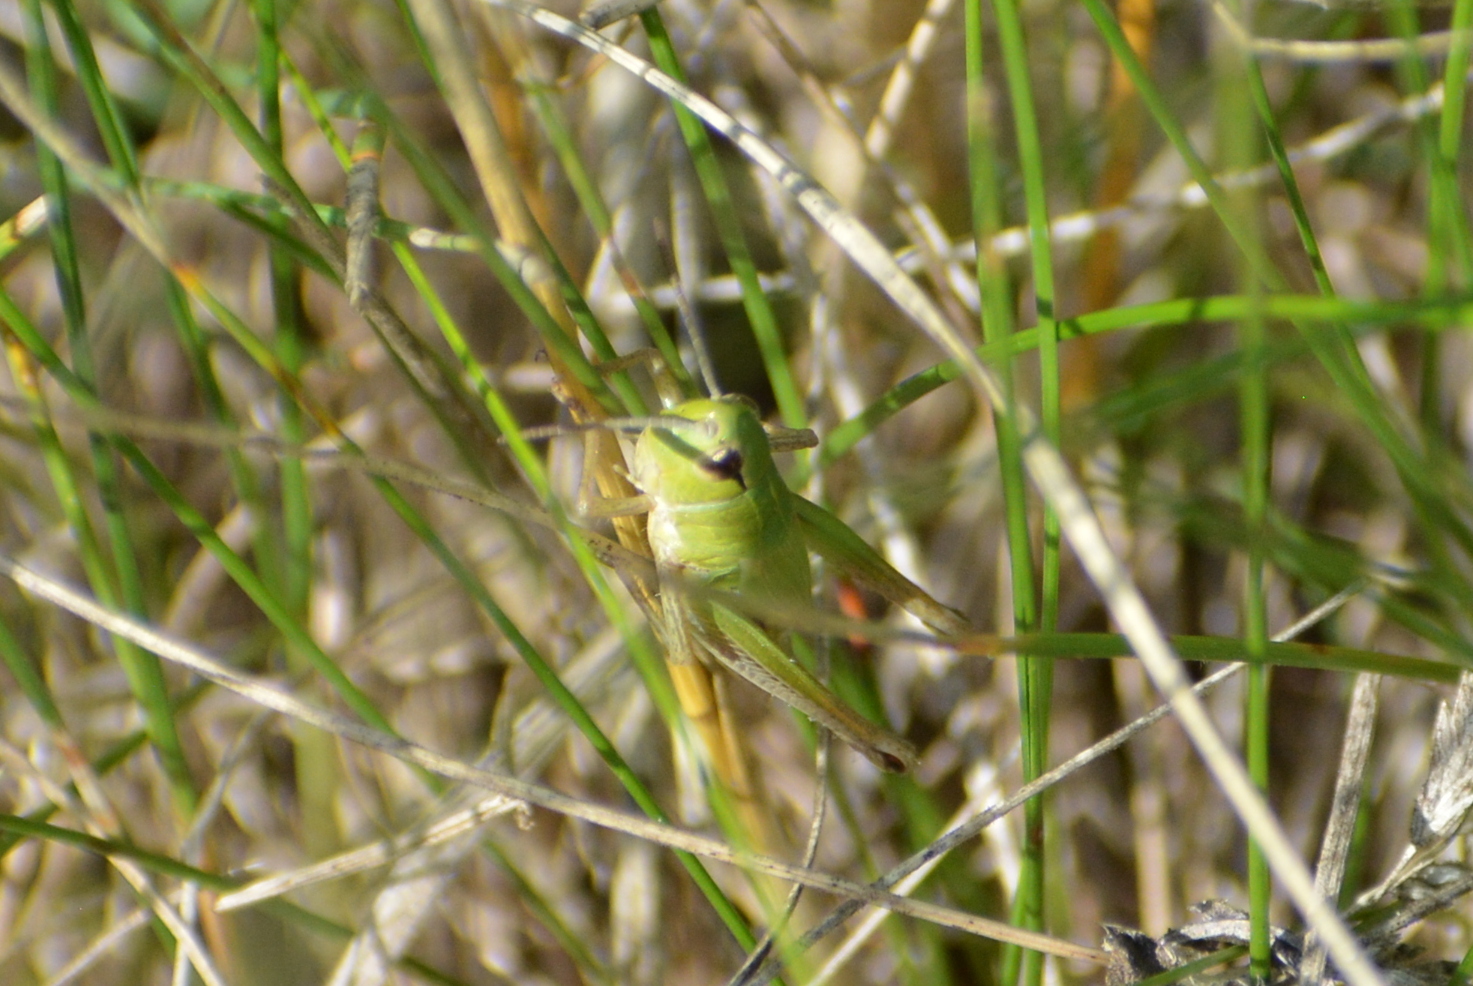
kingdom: Animalia
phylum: Arthropoda
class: Insecta
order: Orthoptera
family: Acrididae
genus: Pseudochorthippus
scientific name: Pseudochorthippus parallelus
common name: Meadow grasshopper
